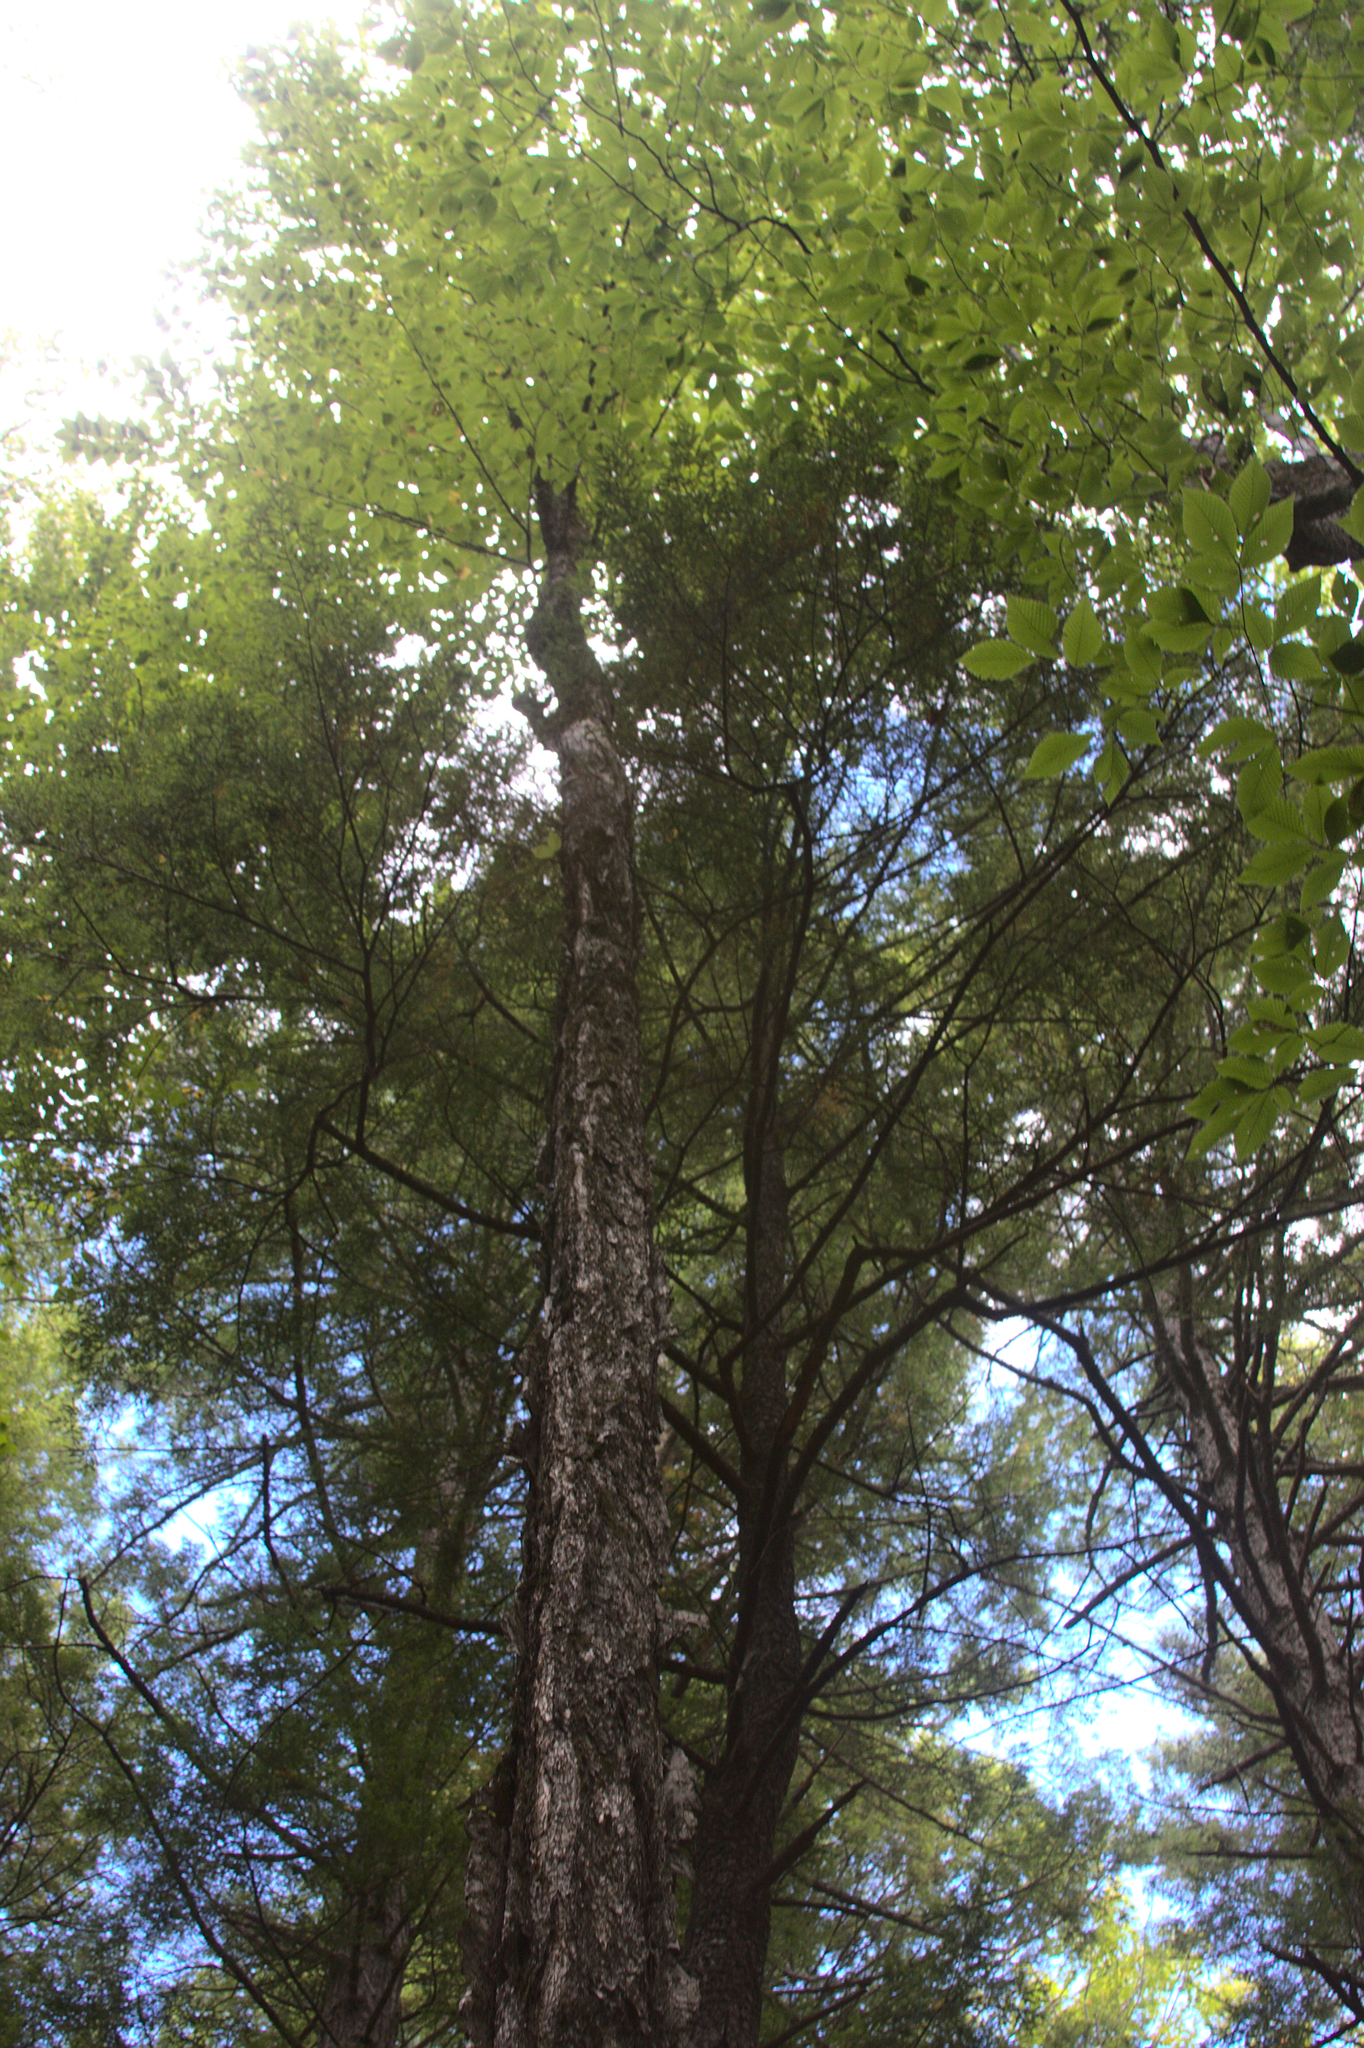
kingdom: Plantae
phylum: Tracheophyta
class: Magnoliopsida
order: Fagales
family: Betulaceae
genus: Betula
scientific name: Betula alleghaniensis
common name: Yellow birch
